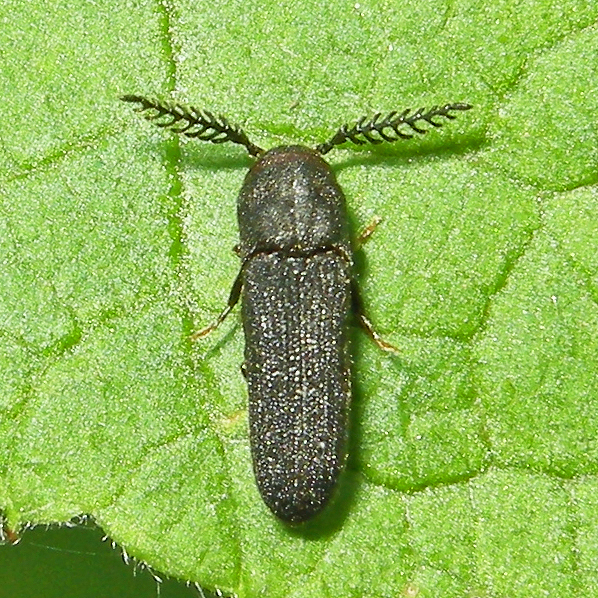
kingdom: Animalia
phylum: Arthropoda
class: Insecta
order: Coleoptera
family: Eucnemidae
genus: Sarpedon
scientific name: Sarpedon scabrosus
